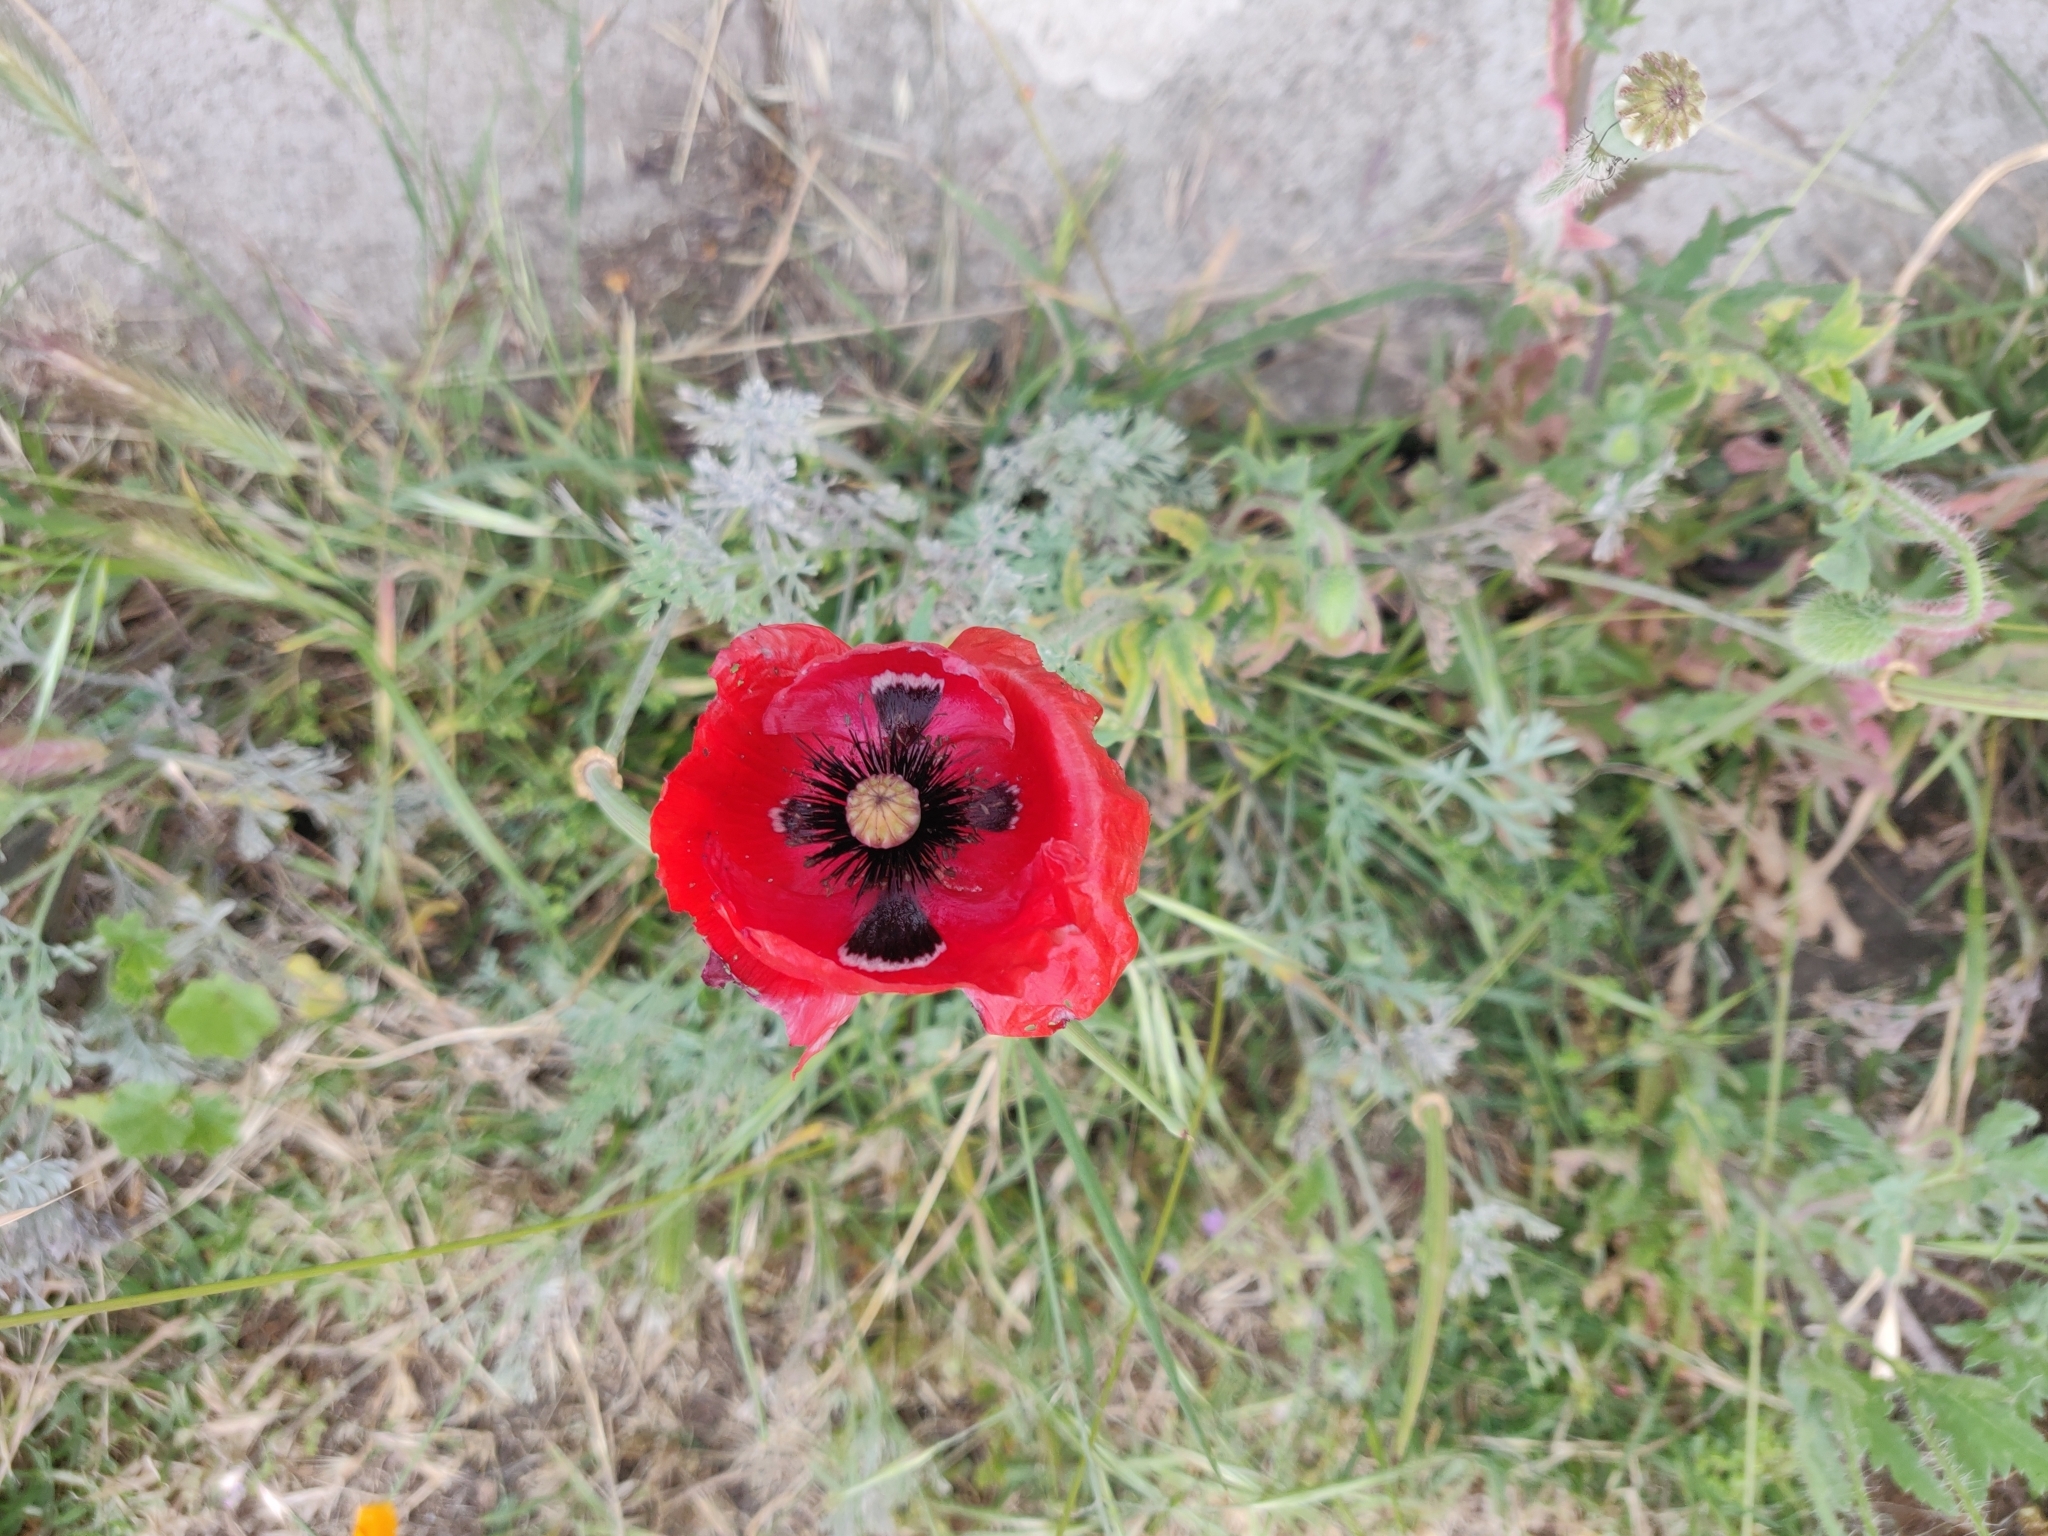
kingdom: Plantae
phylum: Tracheophyta
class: Magnoliopsida
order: Ranunculales
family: Papaveraceae
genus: Papaver
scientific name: Papaver rhoeas
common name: Corn poppy
